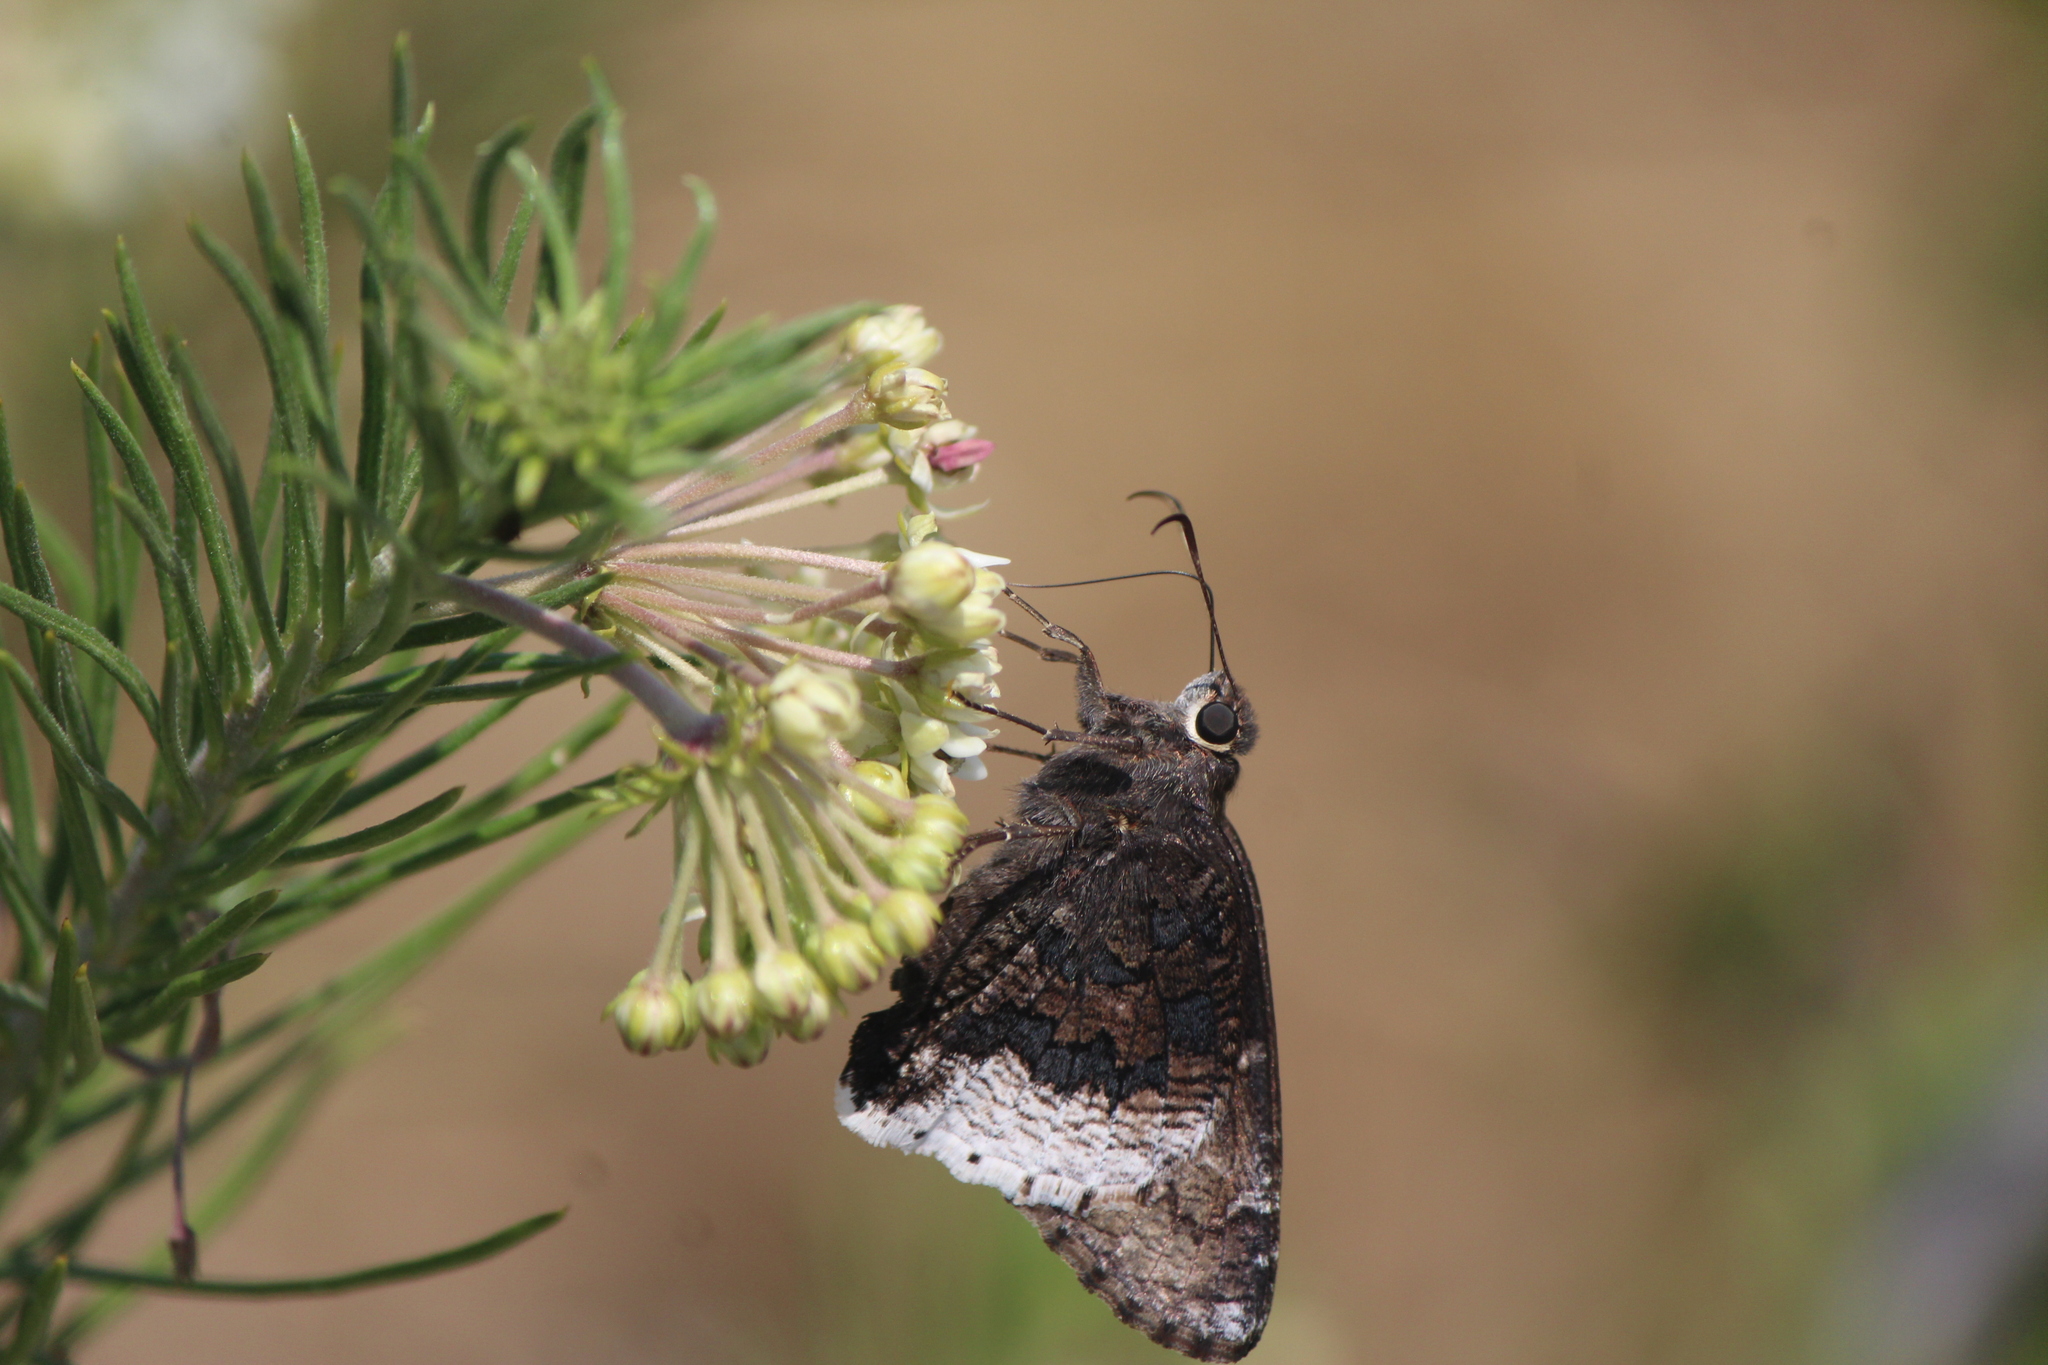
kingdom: Animalia
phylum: Arthropoda
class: Insecta
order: Lepidoptera
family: Hesperiidae
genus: Thorybes
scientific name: Thorybes casica
